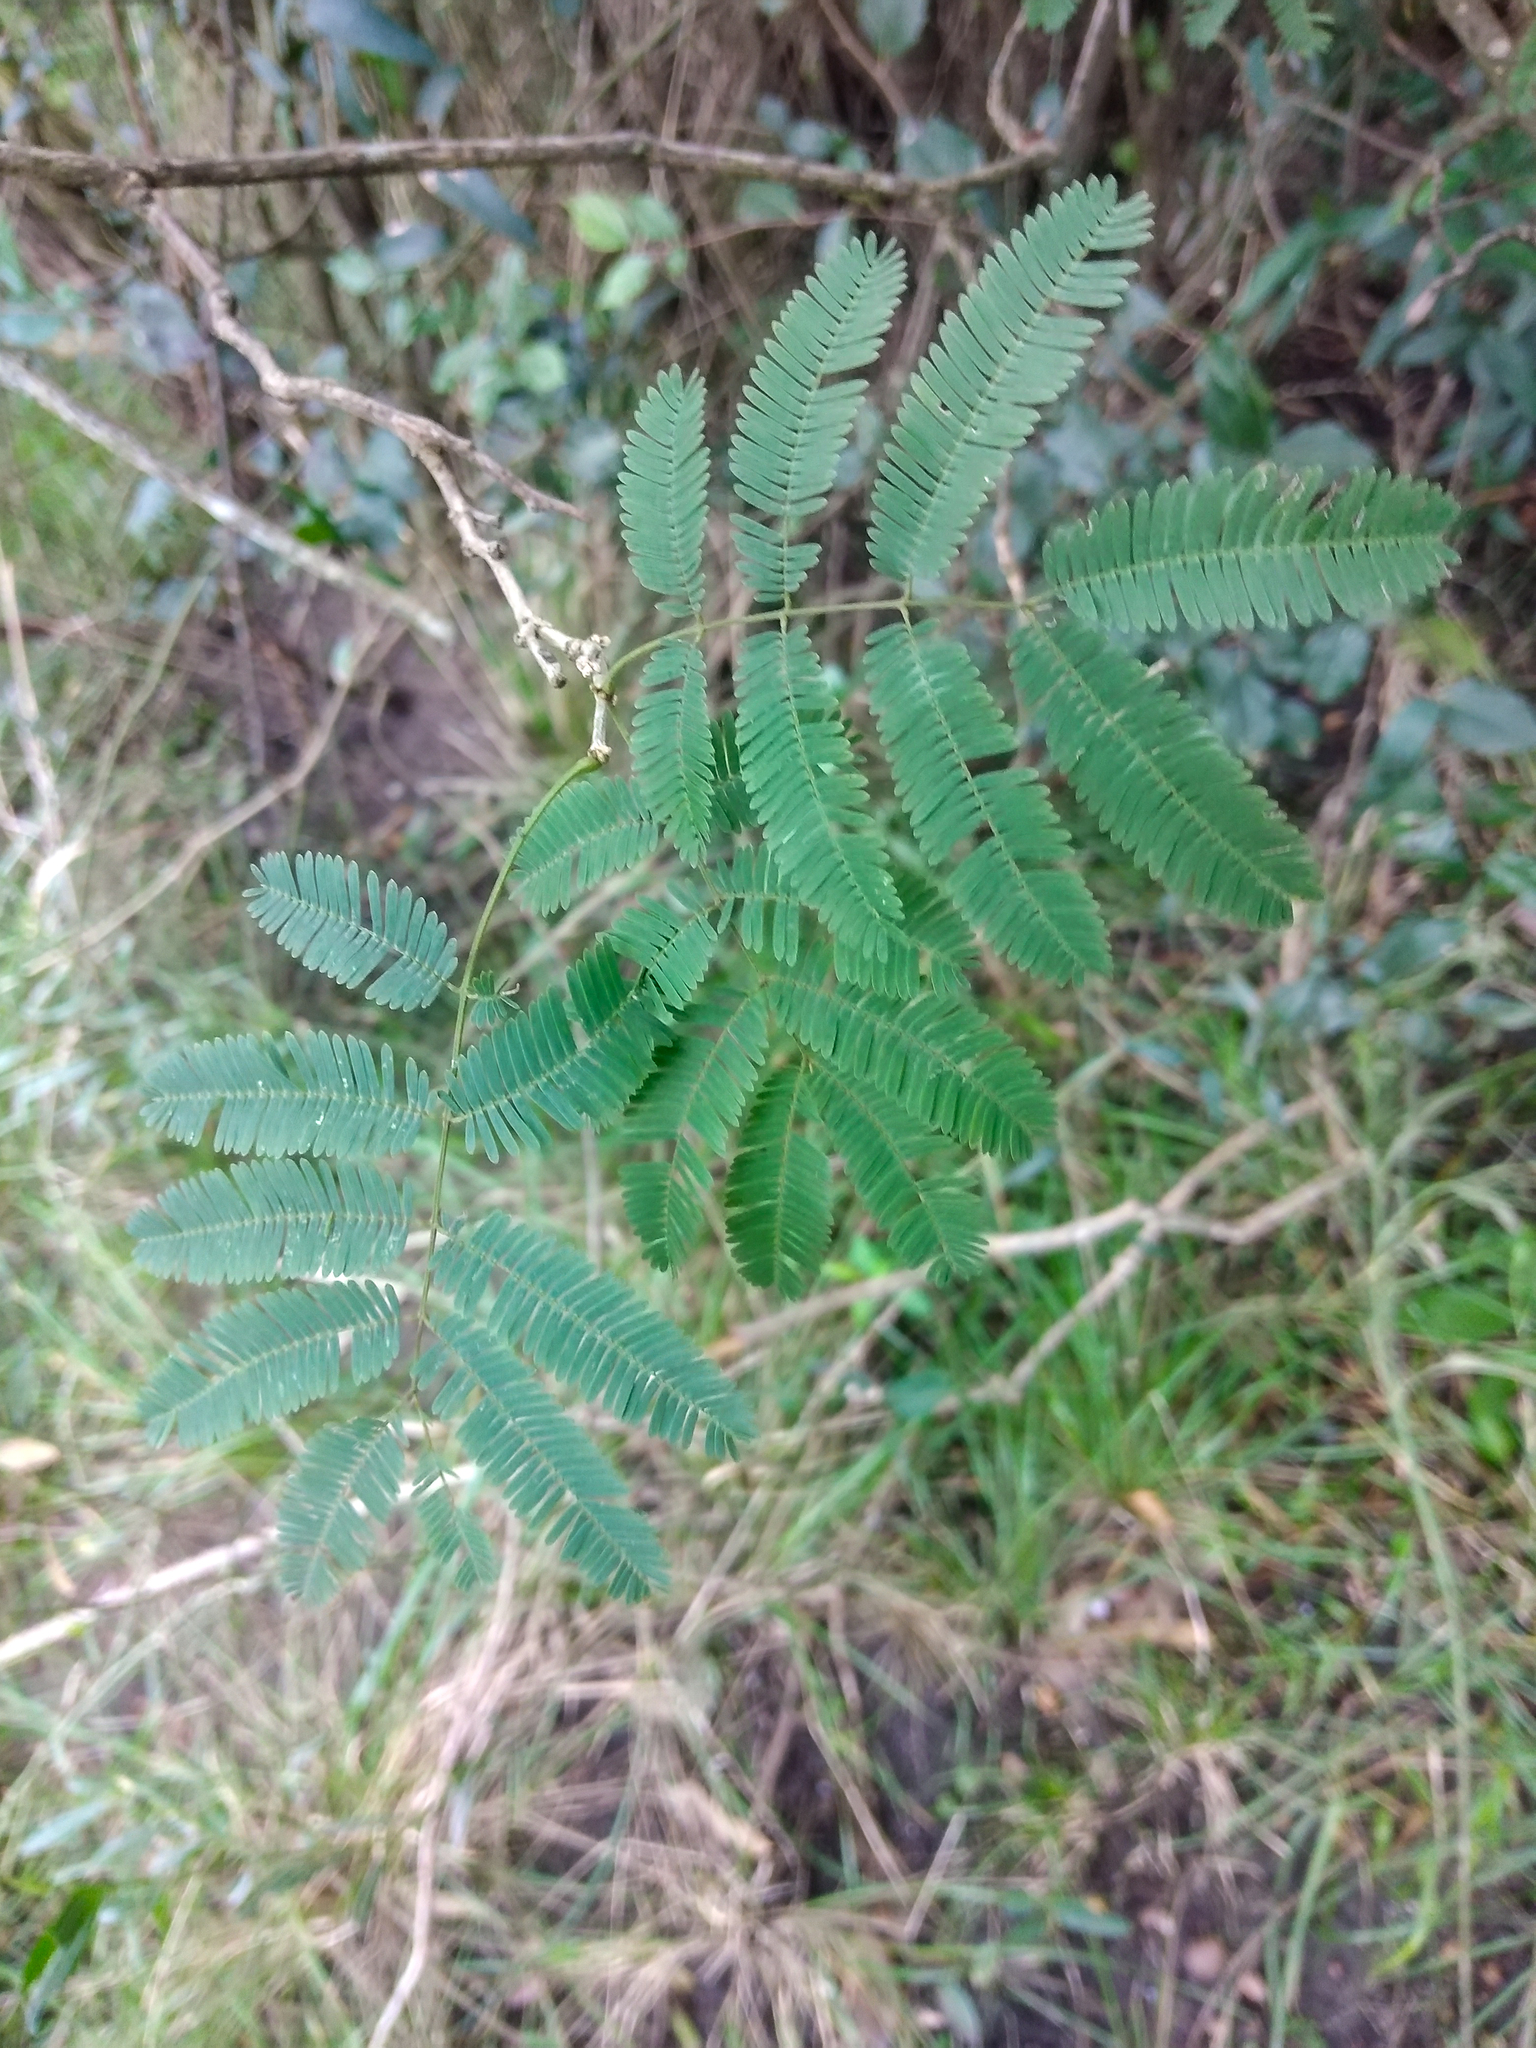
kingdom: Plantae
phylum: Tracheophyta
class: Magnoliopsida
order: Fabales
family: Fabaceae
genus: Senegalia
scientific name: Senegalia bonariensis
